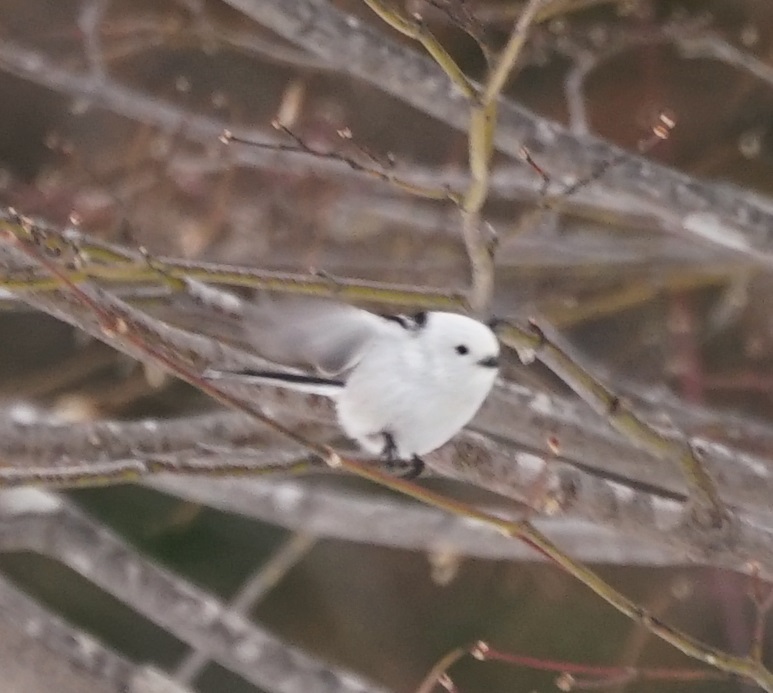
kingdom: Animalia
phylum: Chordata
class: Aves
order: Passeriformes
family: Aegithalidae
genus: Aegithalos
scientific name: Aegithalos caudatus
